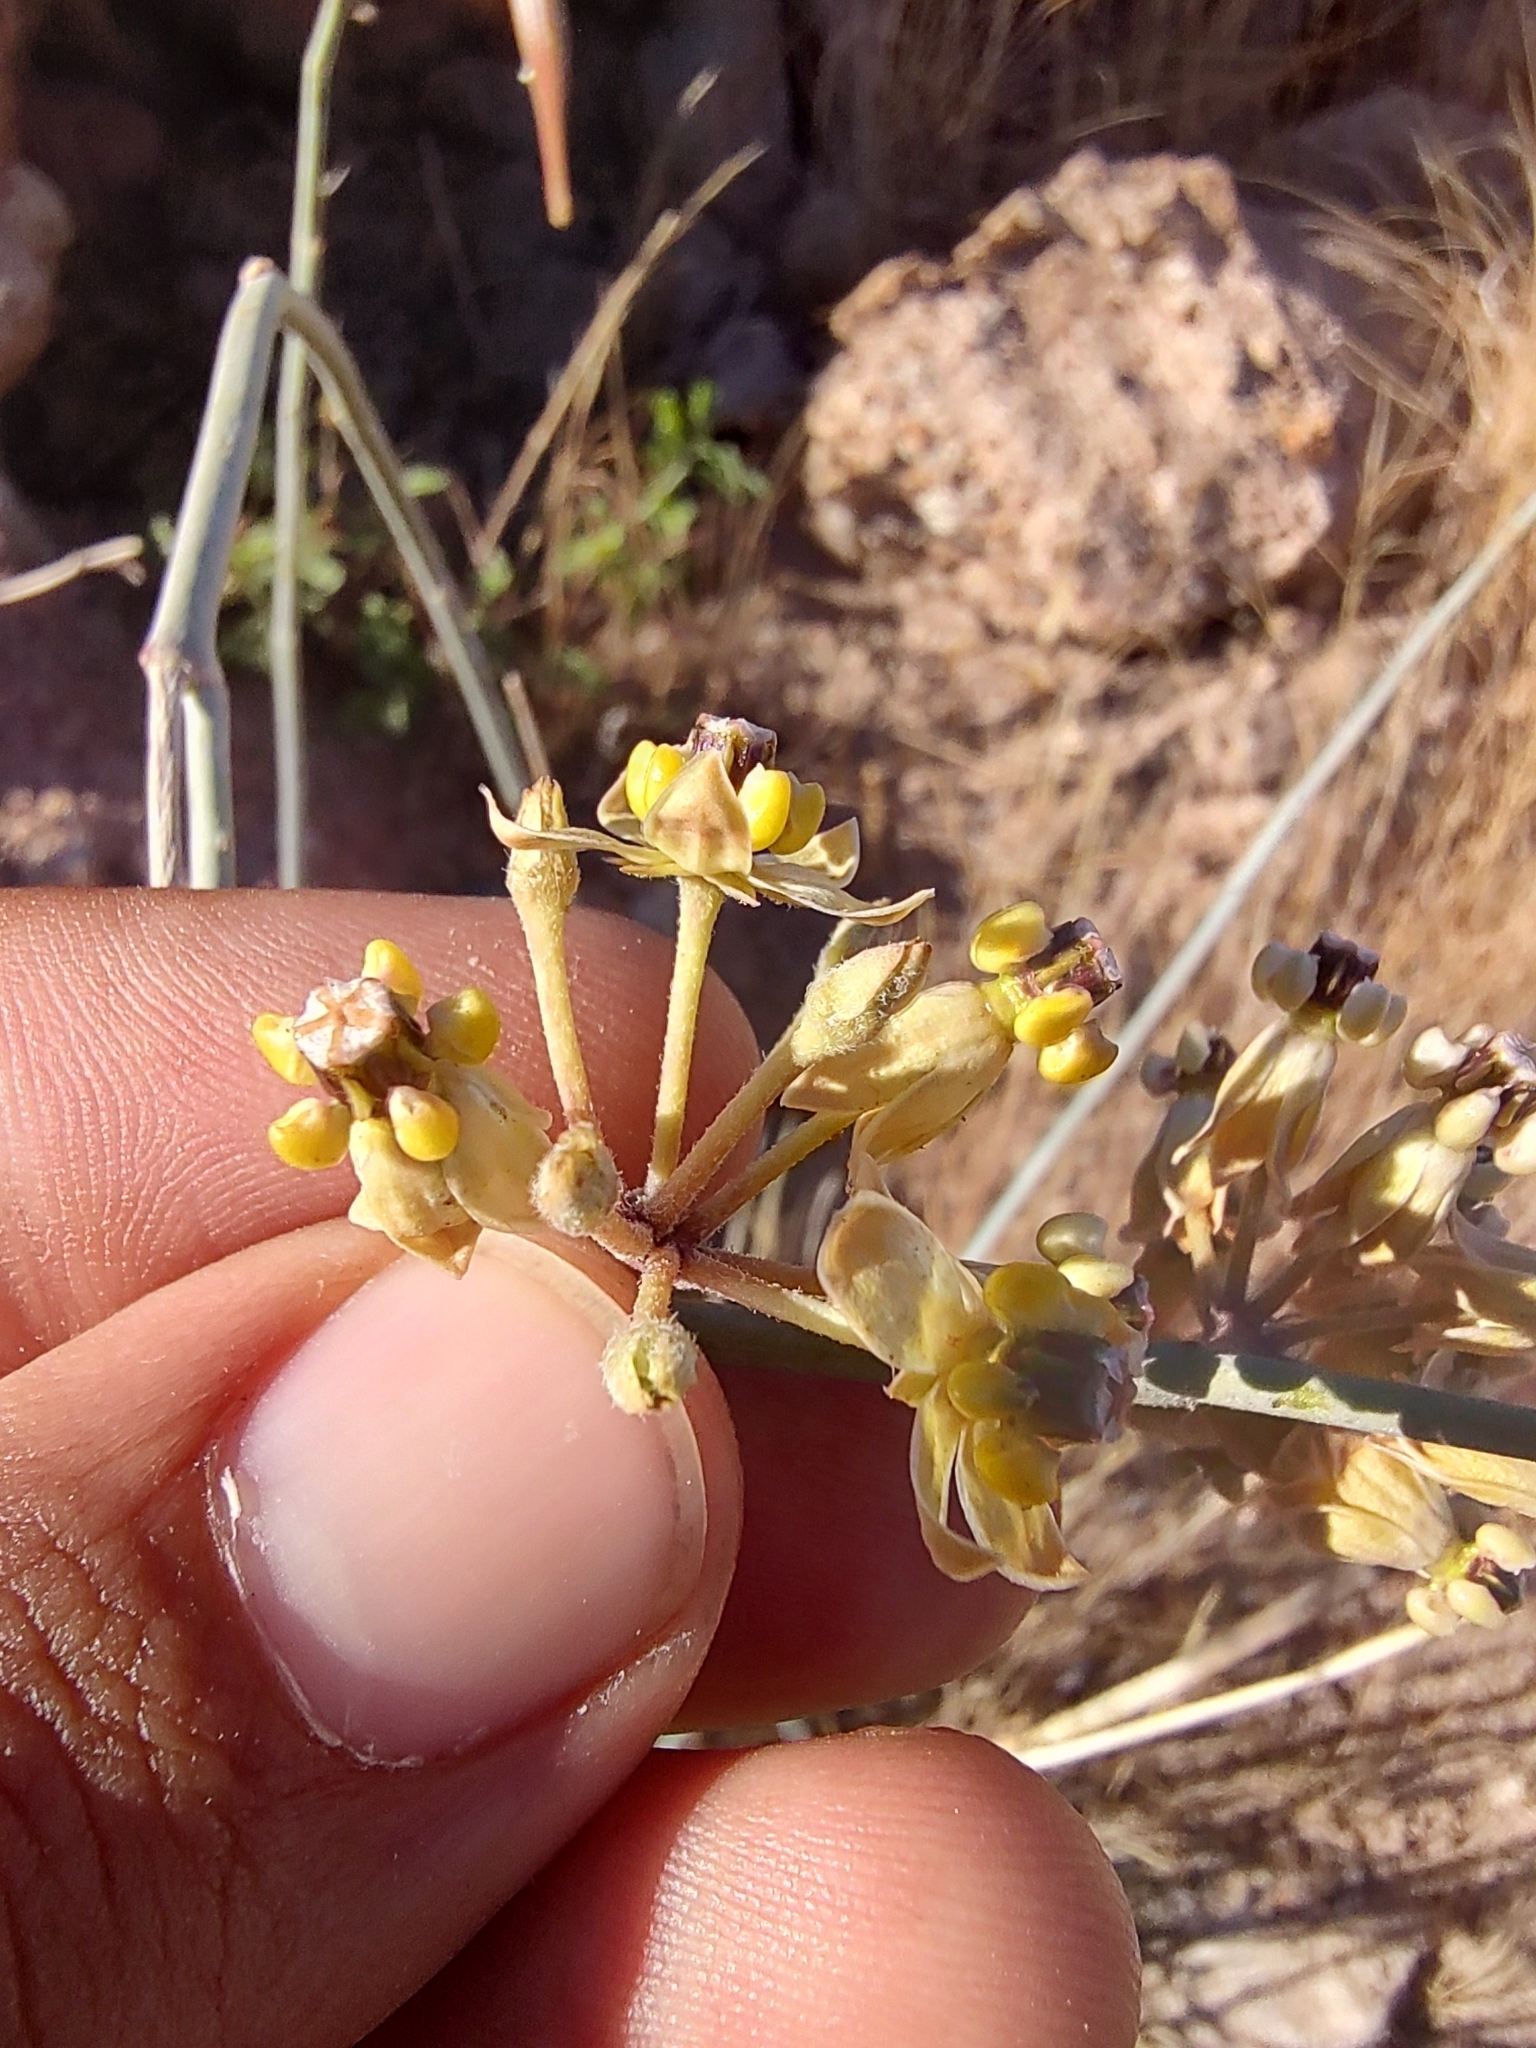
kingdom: Plantae
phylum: Tracheophyta
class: Magnoliopsida
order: Gentianales
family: Apocynaceae
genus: Asclepias
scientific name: Asclepias albicans
